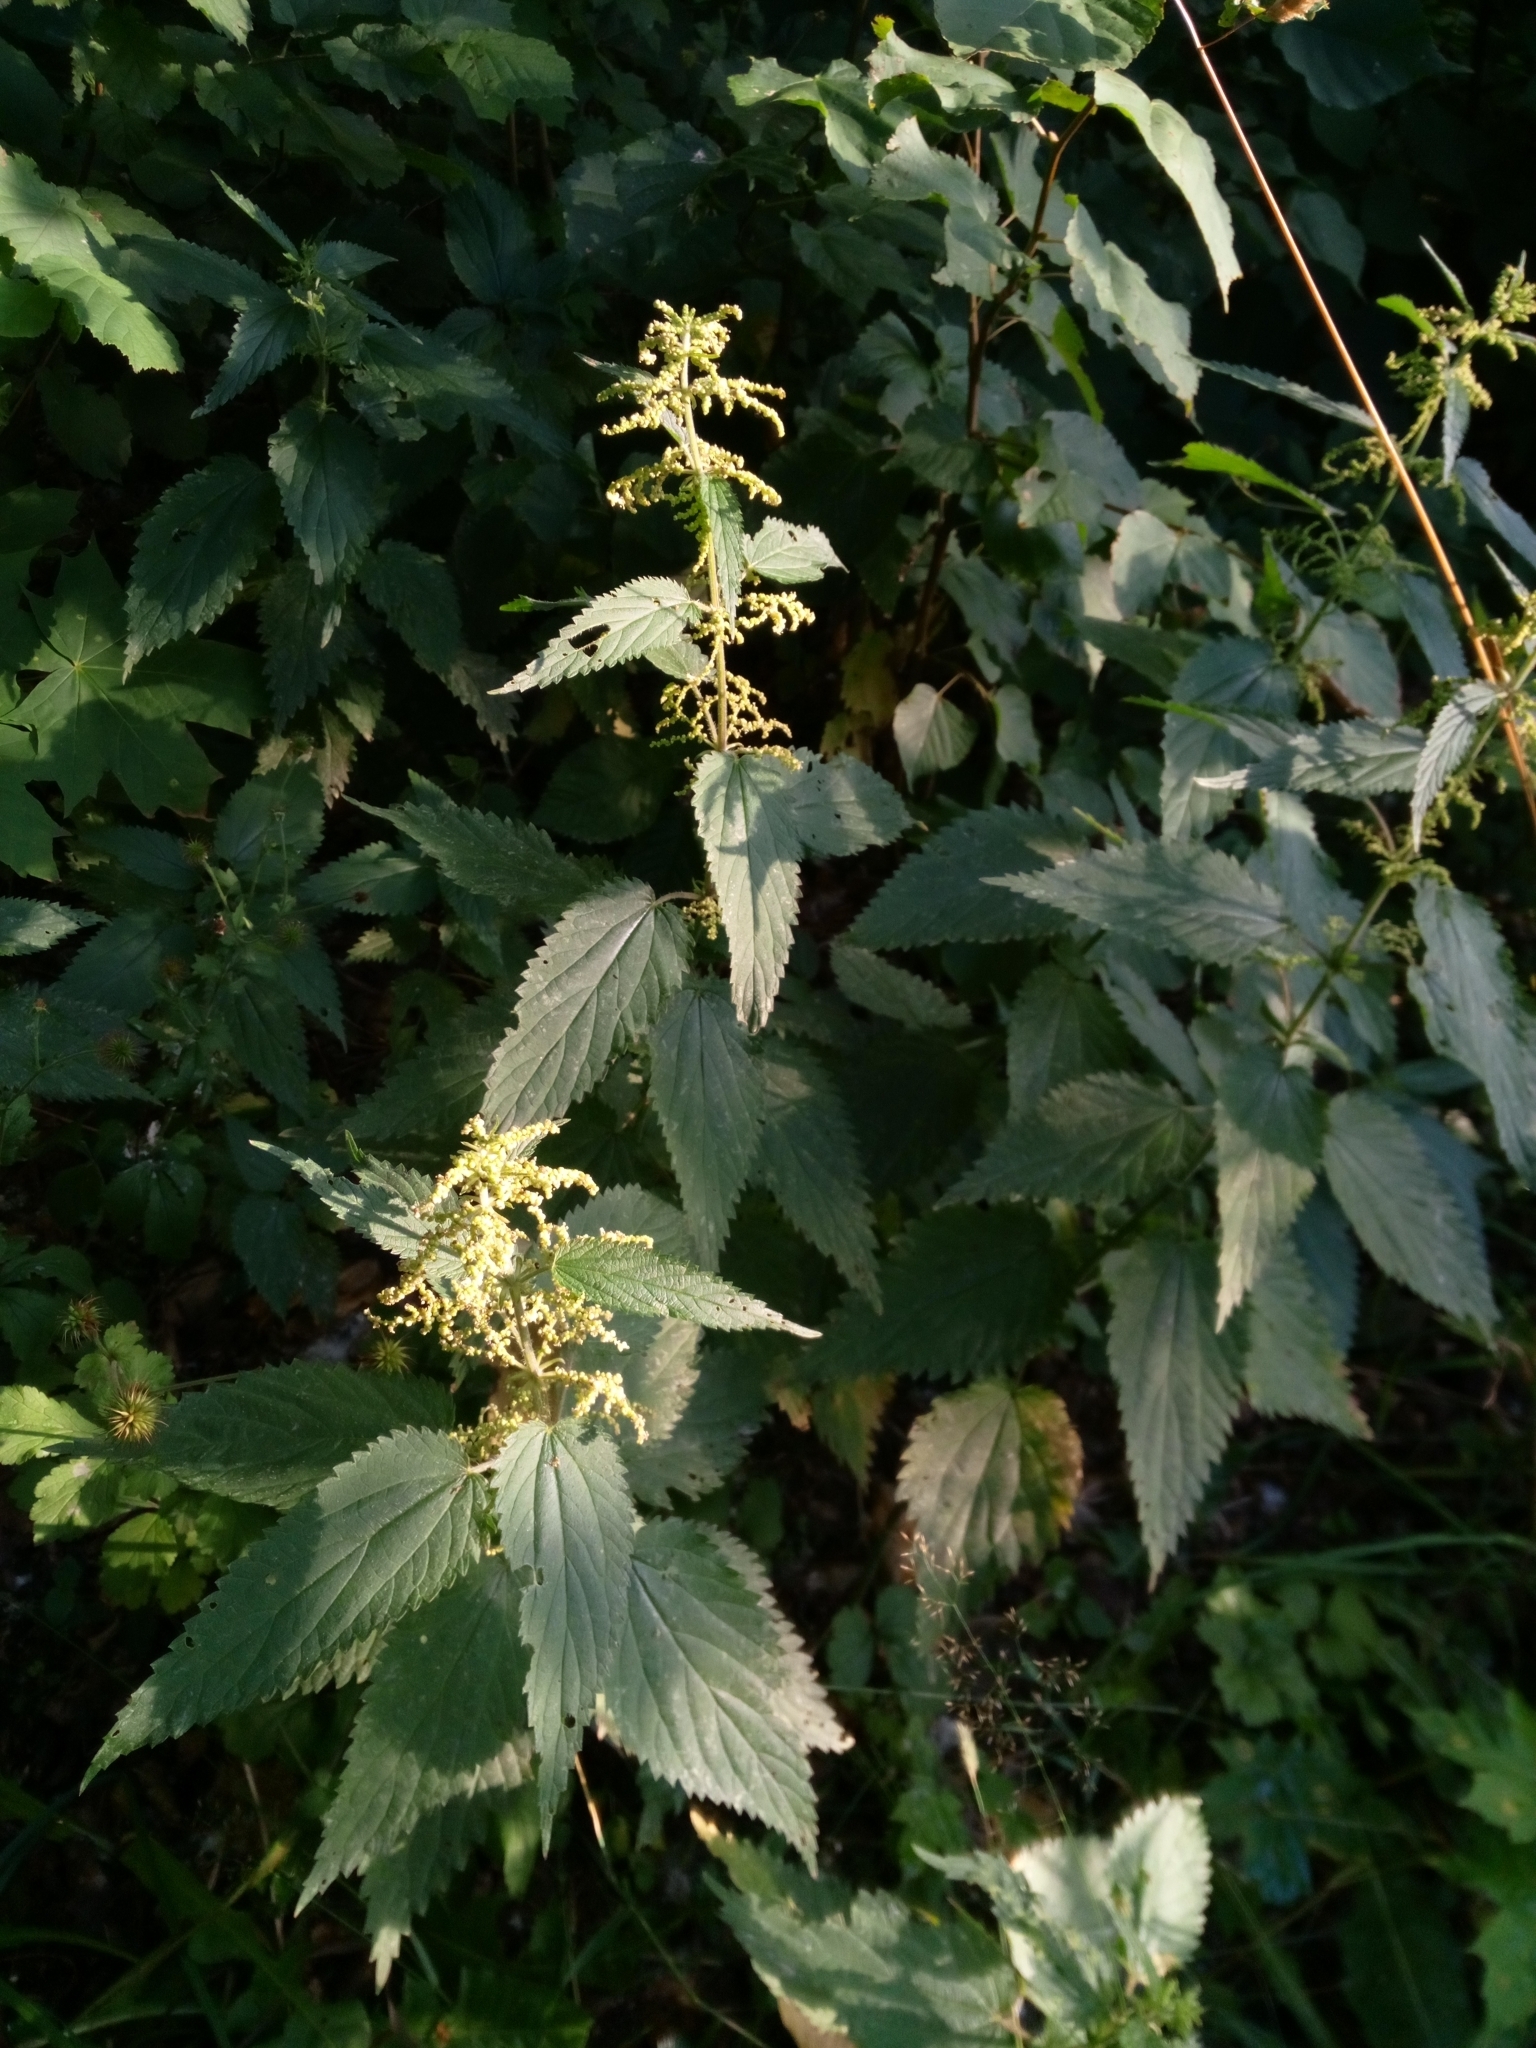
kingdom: Plantae
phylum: Tracheophyta
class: Magnoliopsida
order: Rosales
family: Urticaceae
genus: Urtica
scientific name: Urtica dioica
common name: Common nettle
